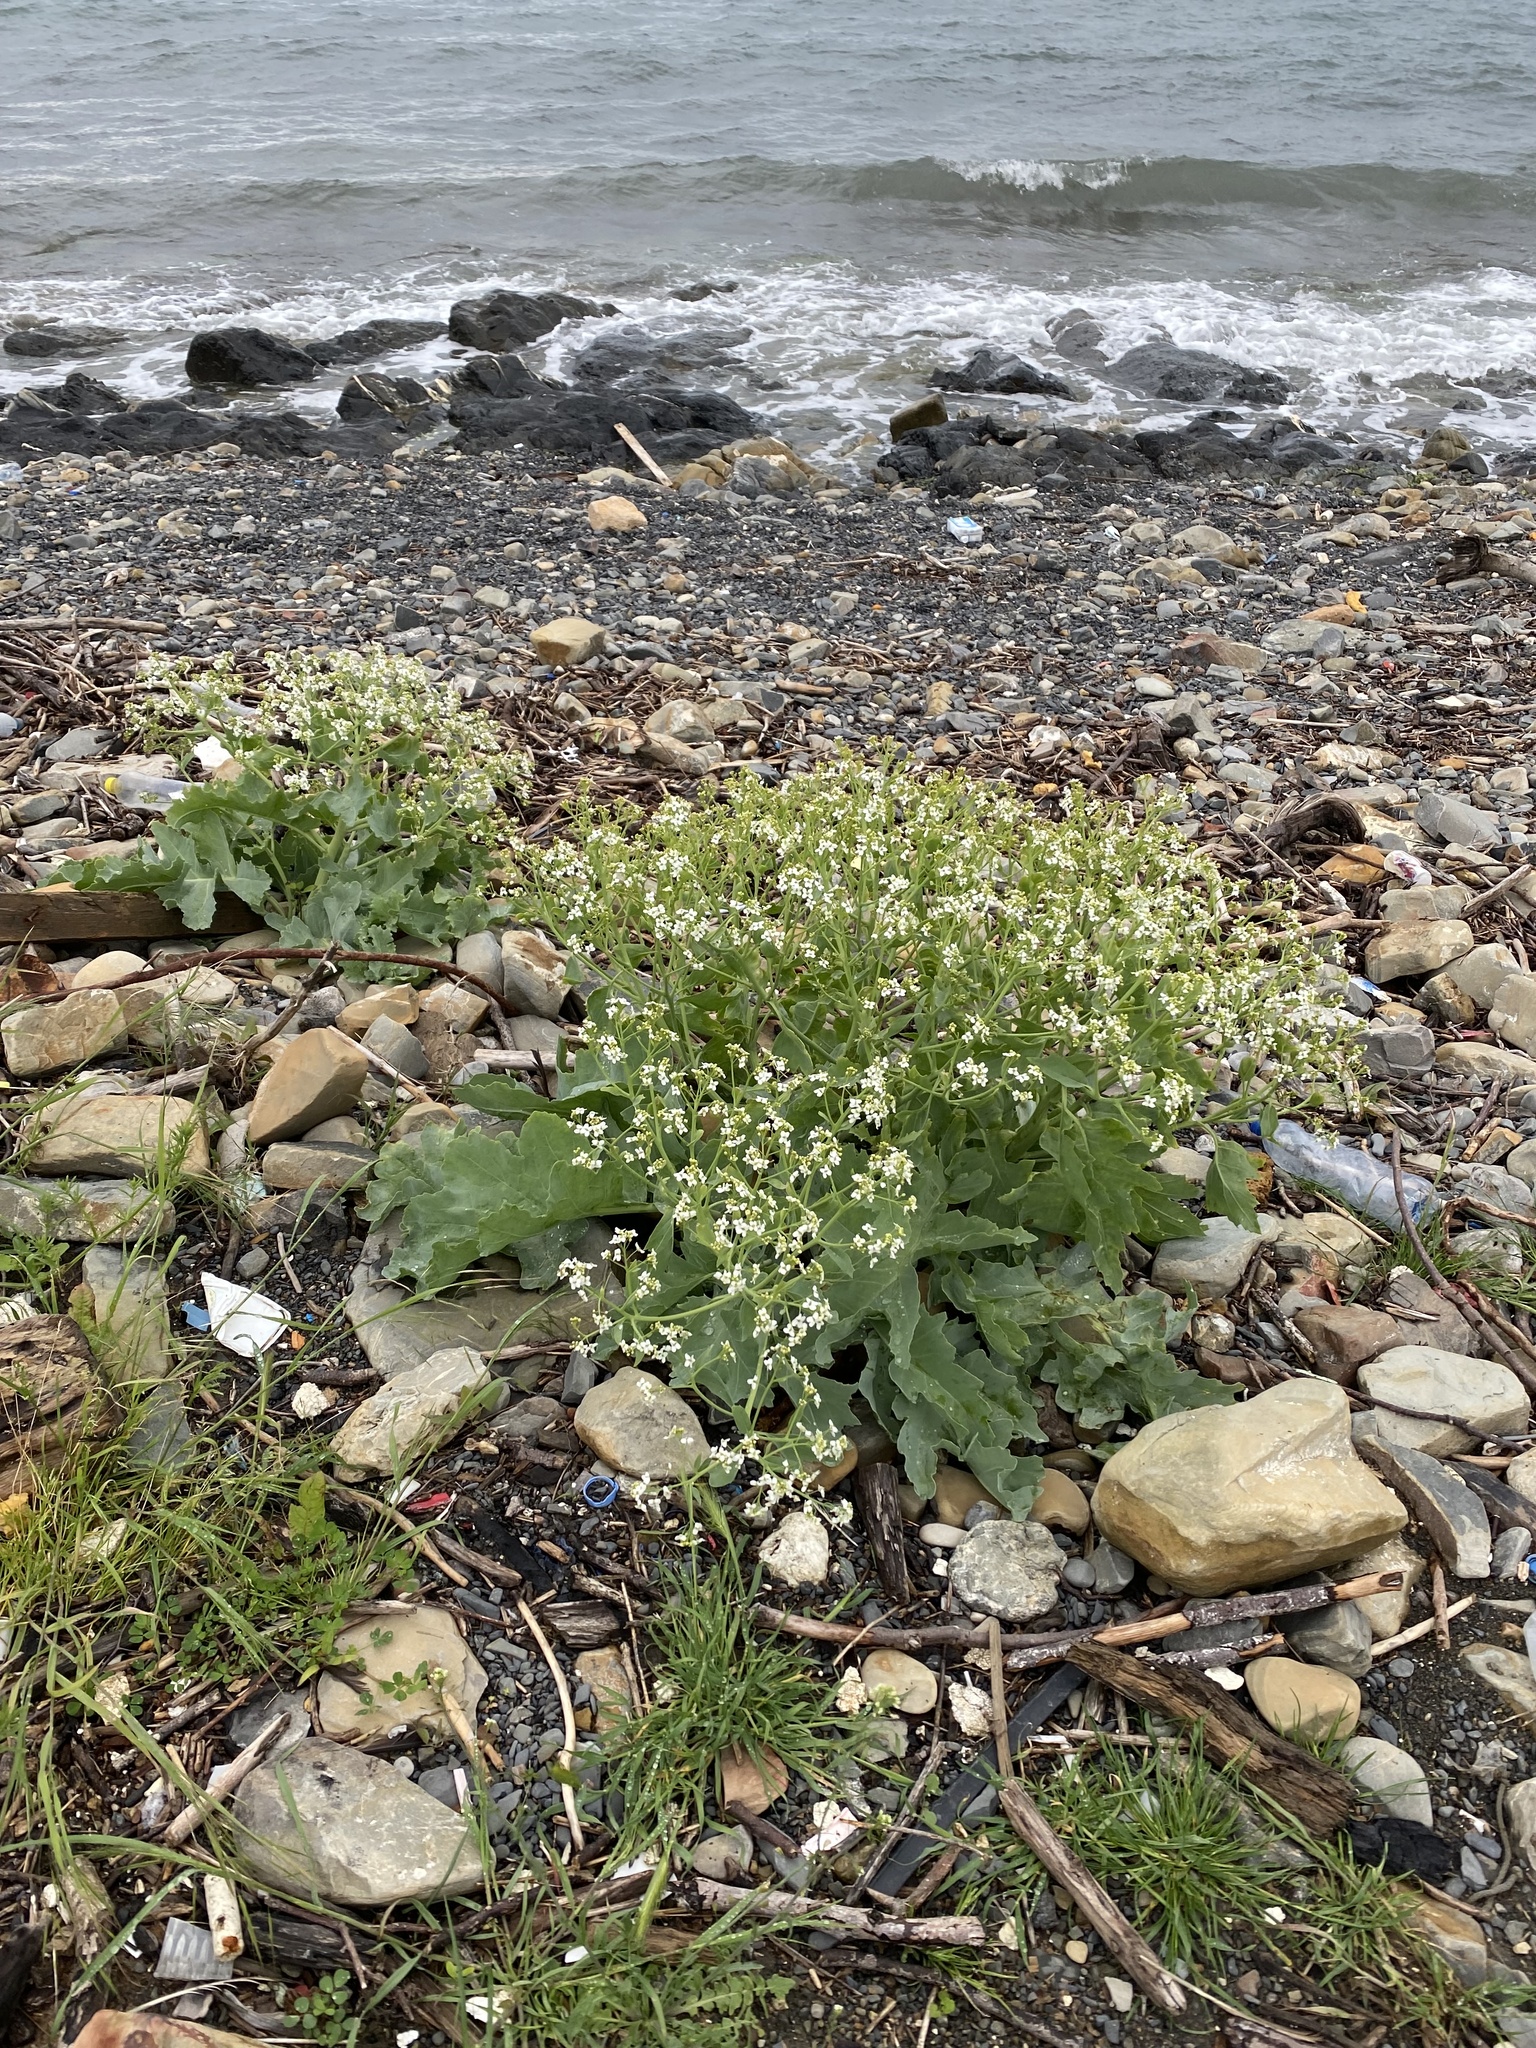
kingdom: Plantae
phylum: Tracheophyta
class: Magnoliopsida
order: Brassicales
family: Brassicaceae
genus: Crambe
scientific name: Crambe maritima
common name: Sea-kale
